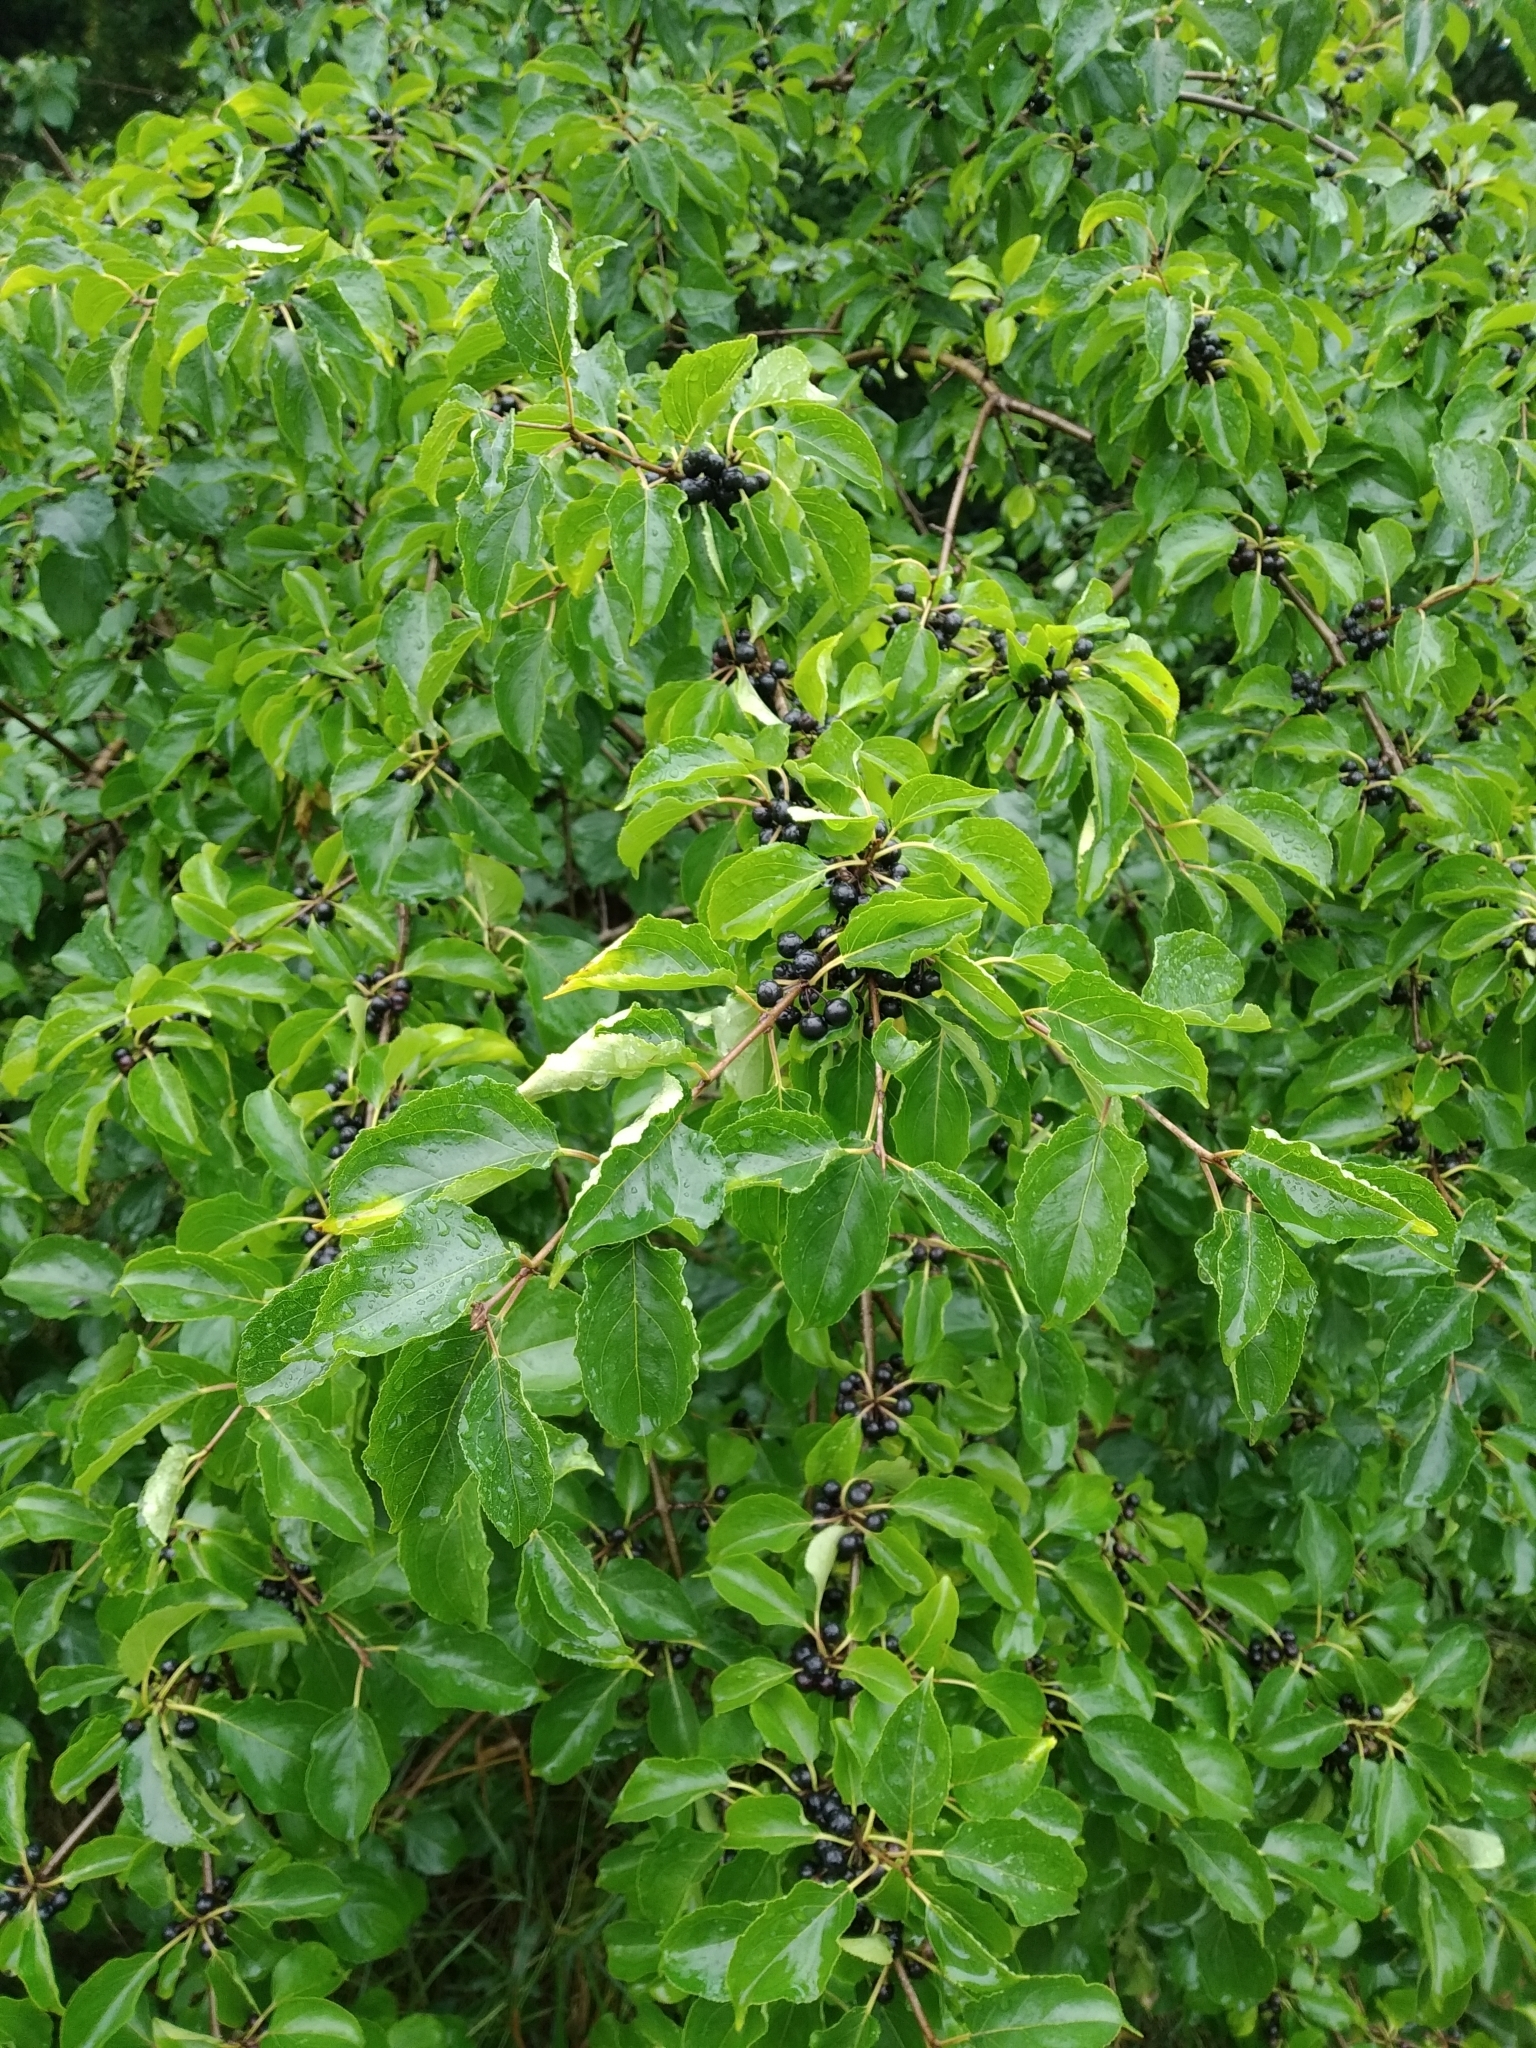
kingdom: Plantae
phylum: Tracheophyta
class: Magnoliopsida
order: Rosales
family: Rhamnaceae
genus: Rhamnus
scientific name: Rhamnus cathartica
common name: Common buckthorn
